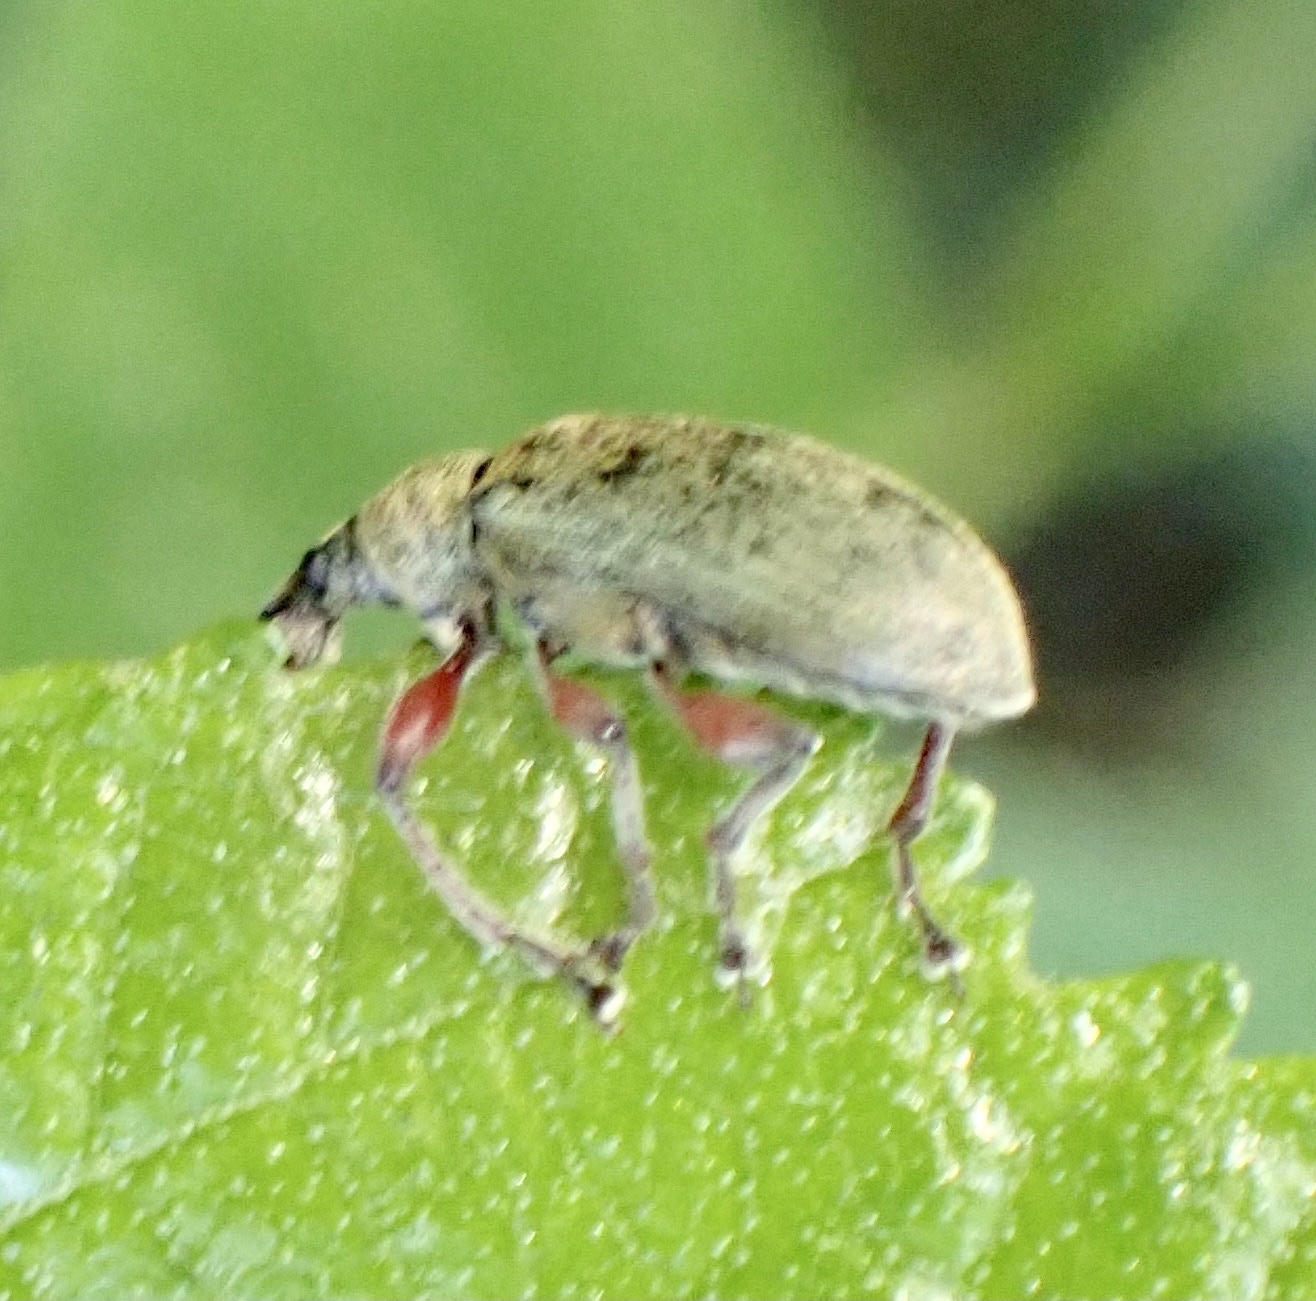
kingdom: Animalia
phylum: Arthropoda
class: Insecta
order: Coleoptera
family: Curculionidae
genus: Phyllobius
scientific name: Phyllobius glaucus
